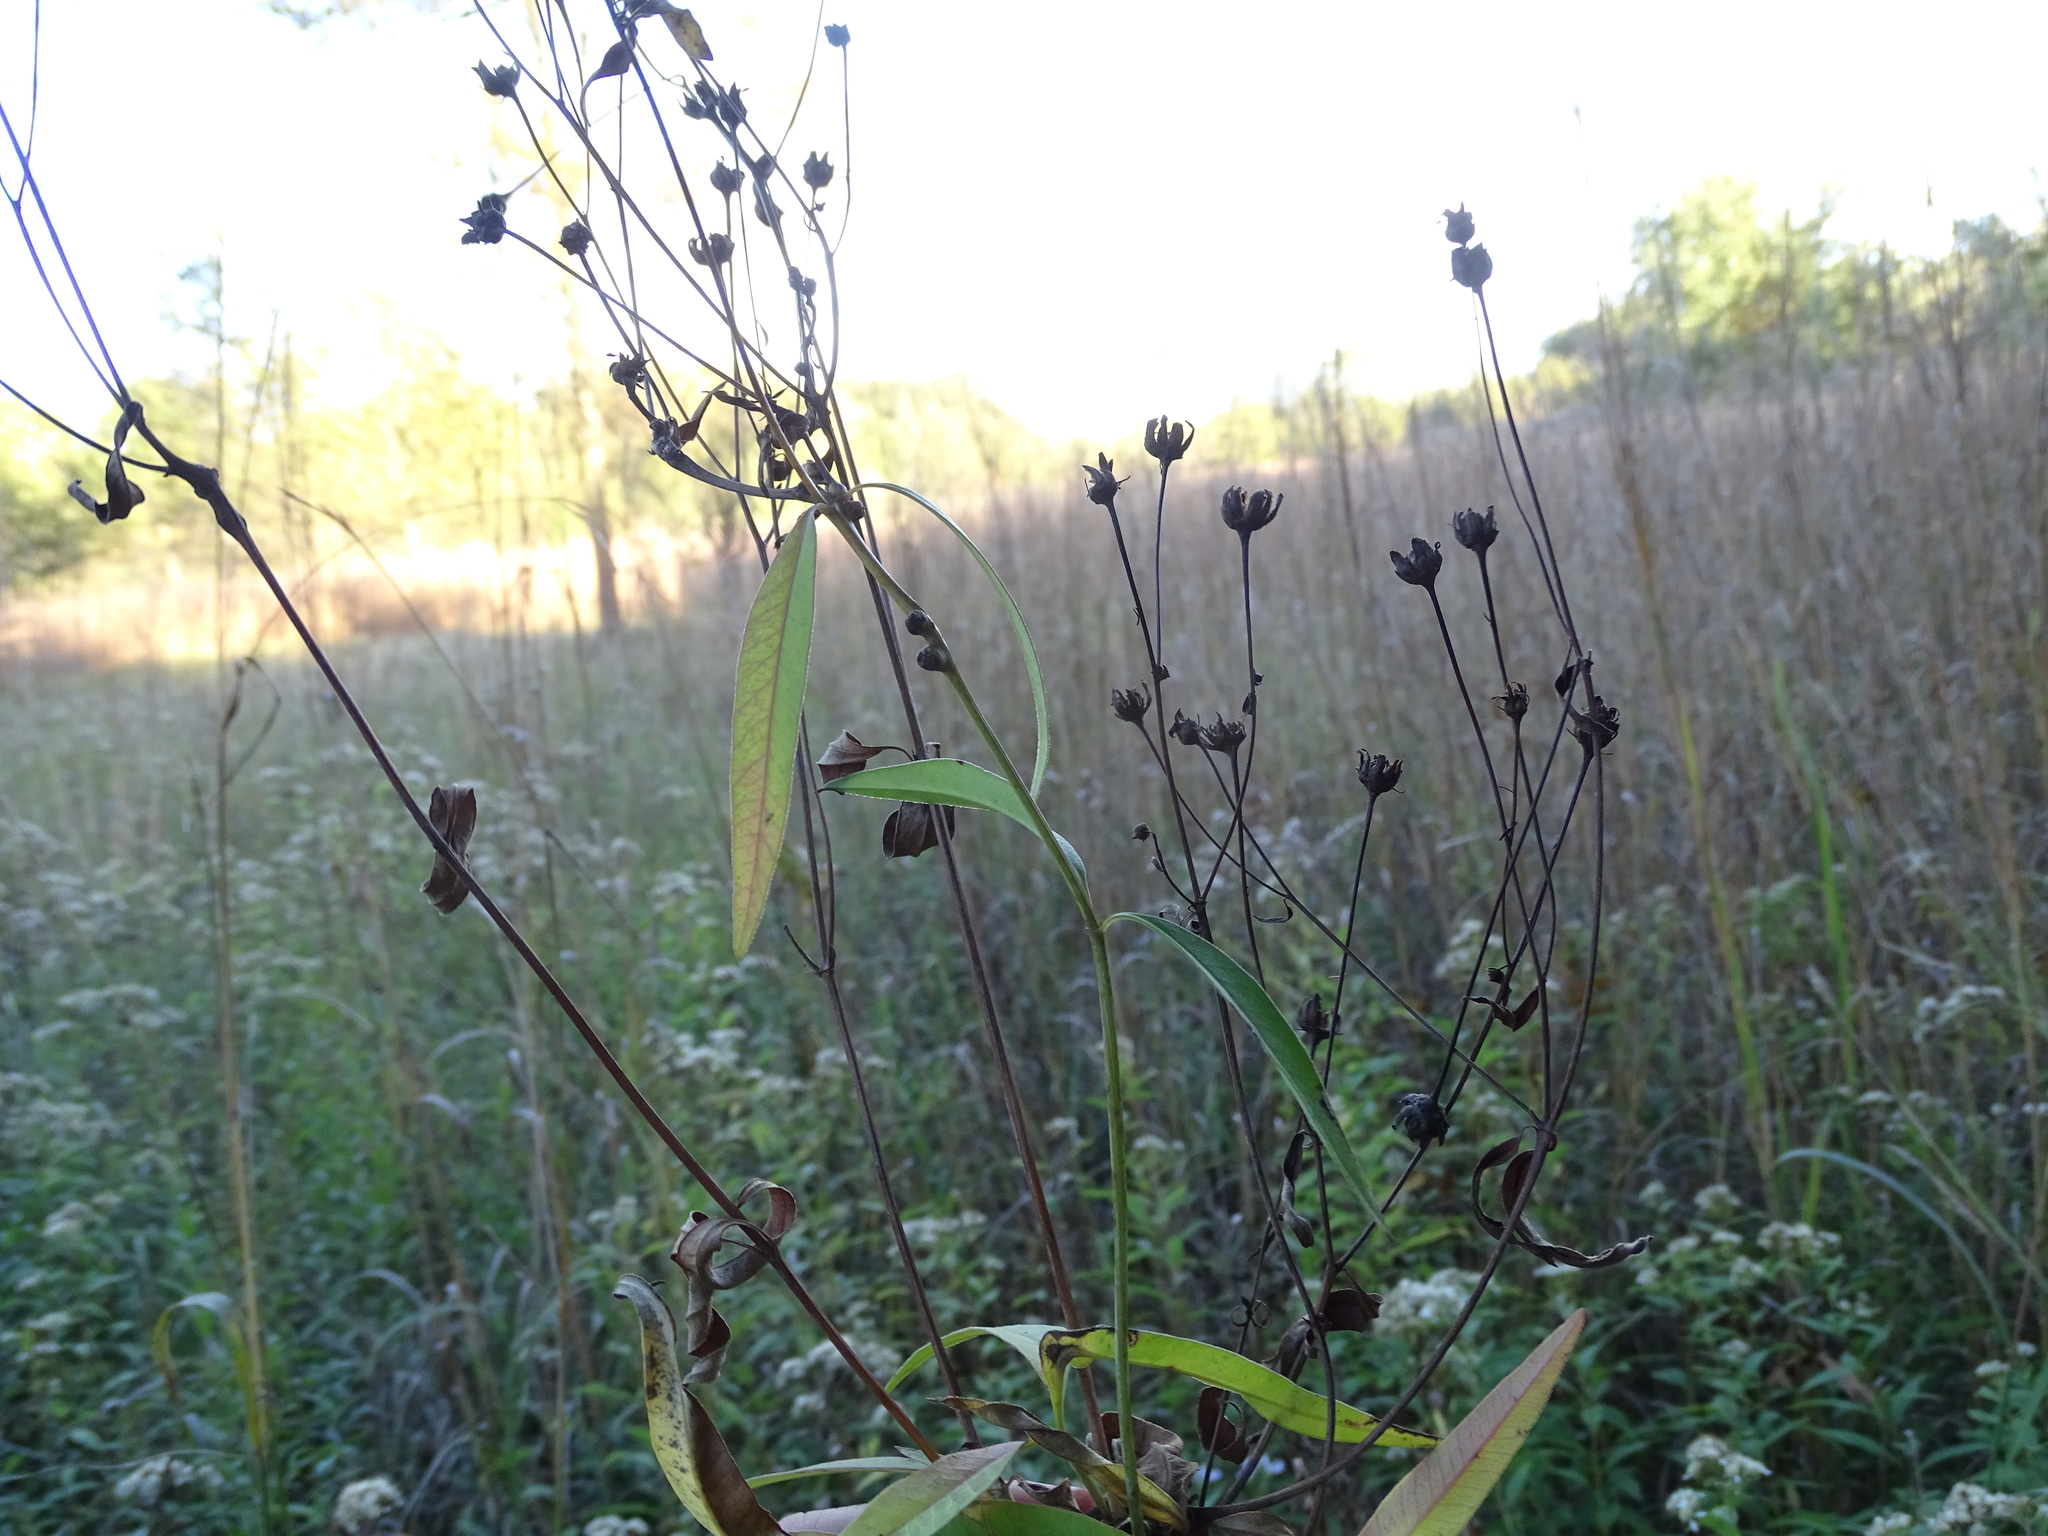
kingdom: Plantae
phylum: Tracheophyta
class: Magnoliopsida
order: Asterales
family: Asteraceae
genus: Coreopsis
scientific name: Coreopsis tripteris
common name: Tall coreopsis
